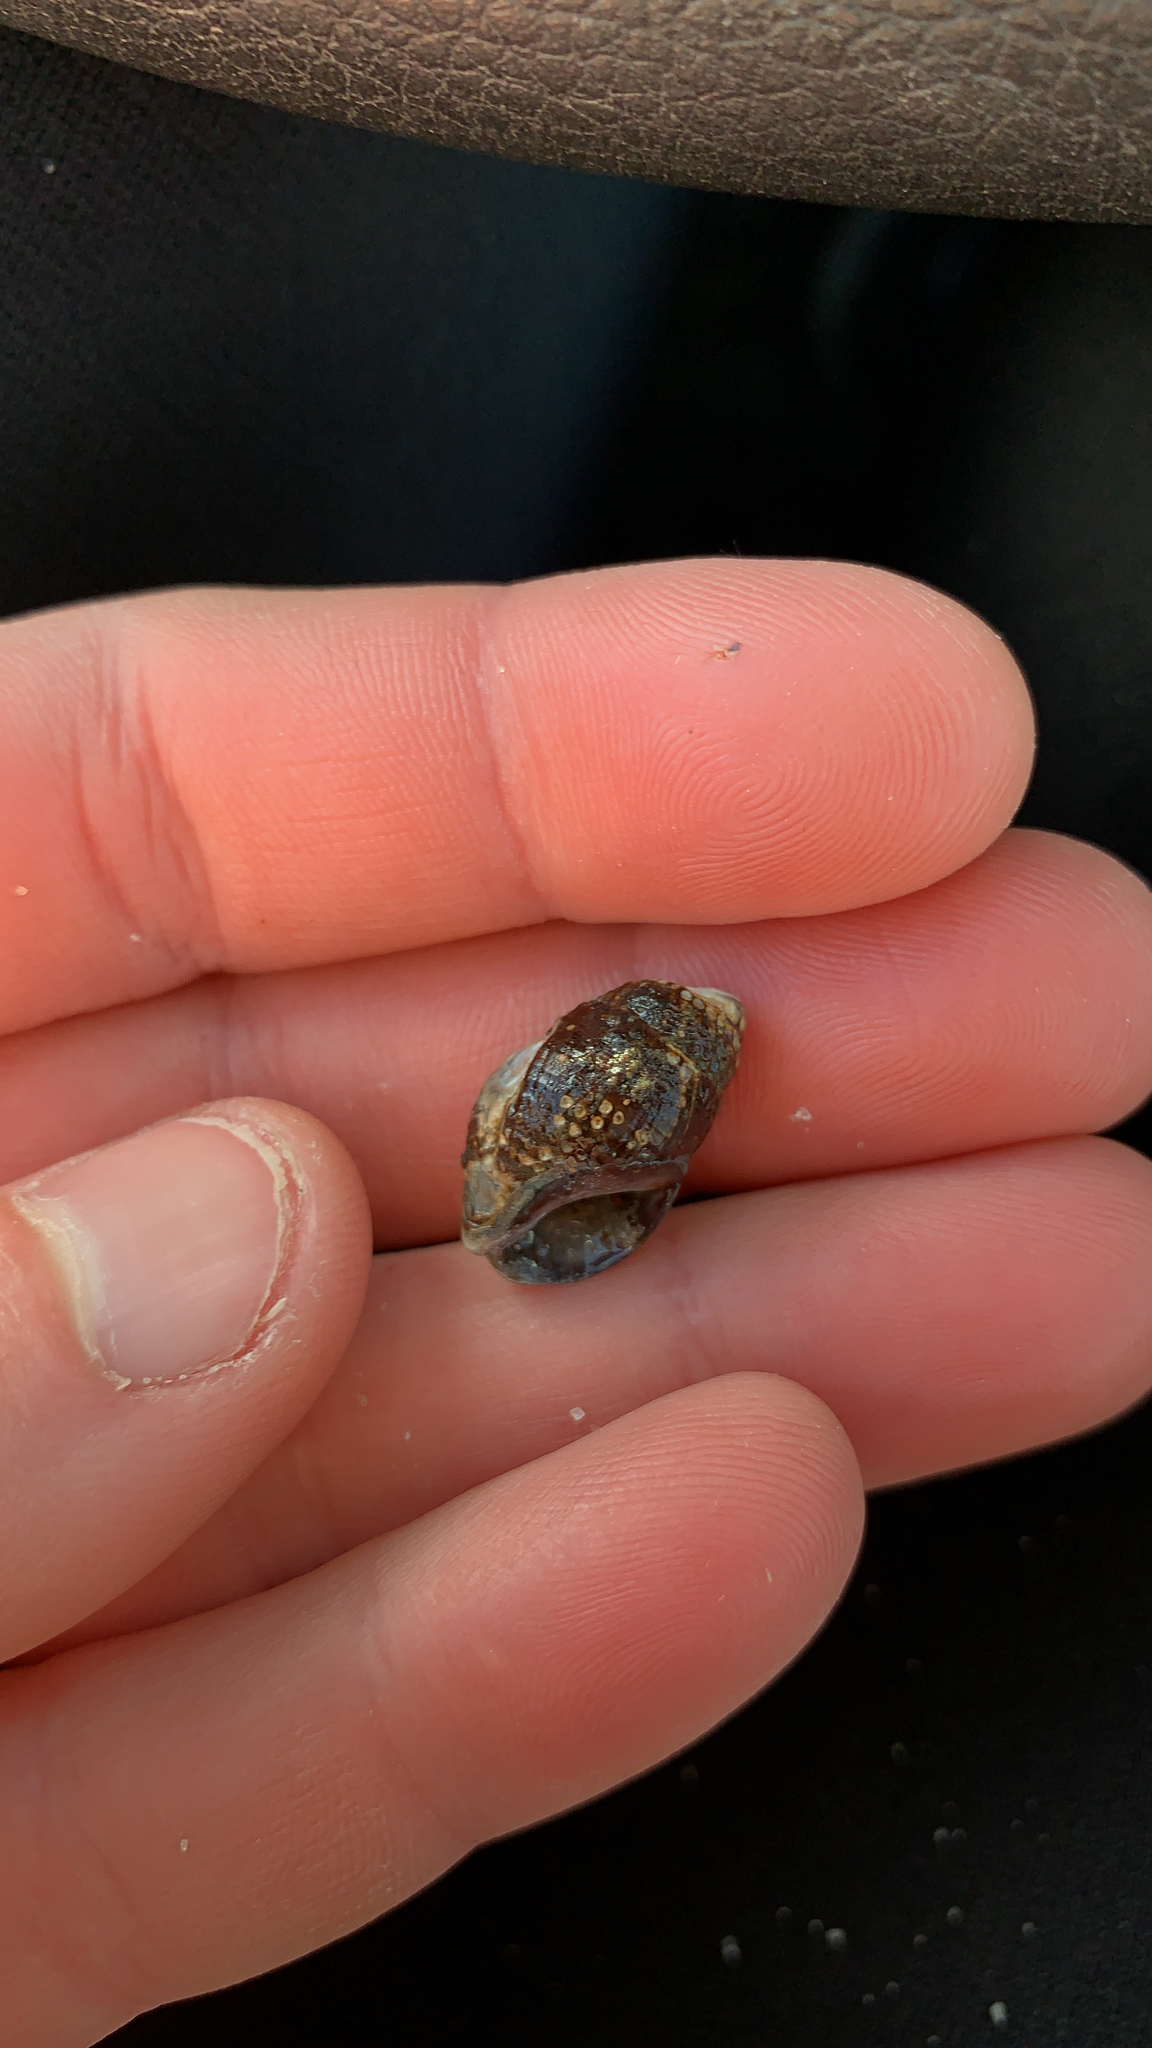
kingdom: Animalia
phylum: Mollusca
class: Gastropoda
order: Neogastropoda
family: Nassariidae
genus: Ilyanassa
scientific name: Ilyanassa obsoleta
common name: Eastern mudsnail
